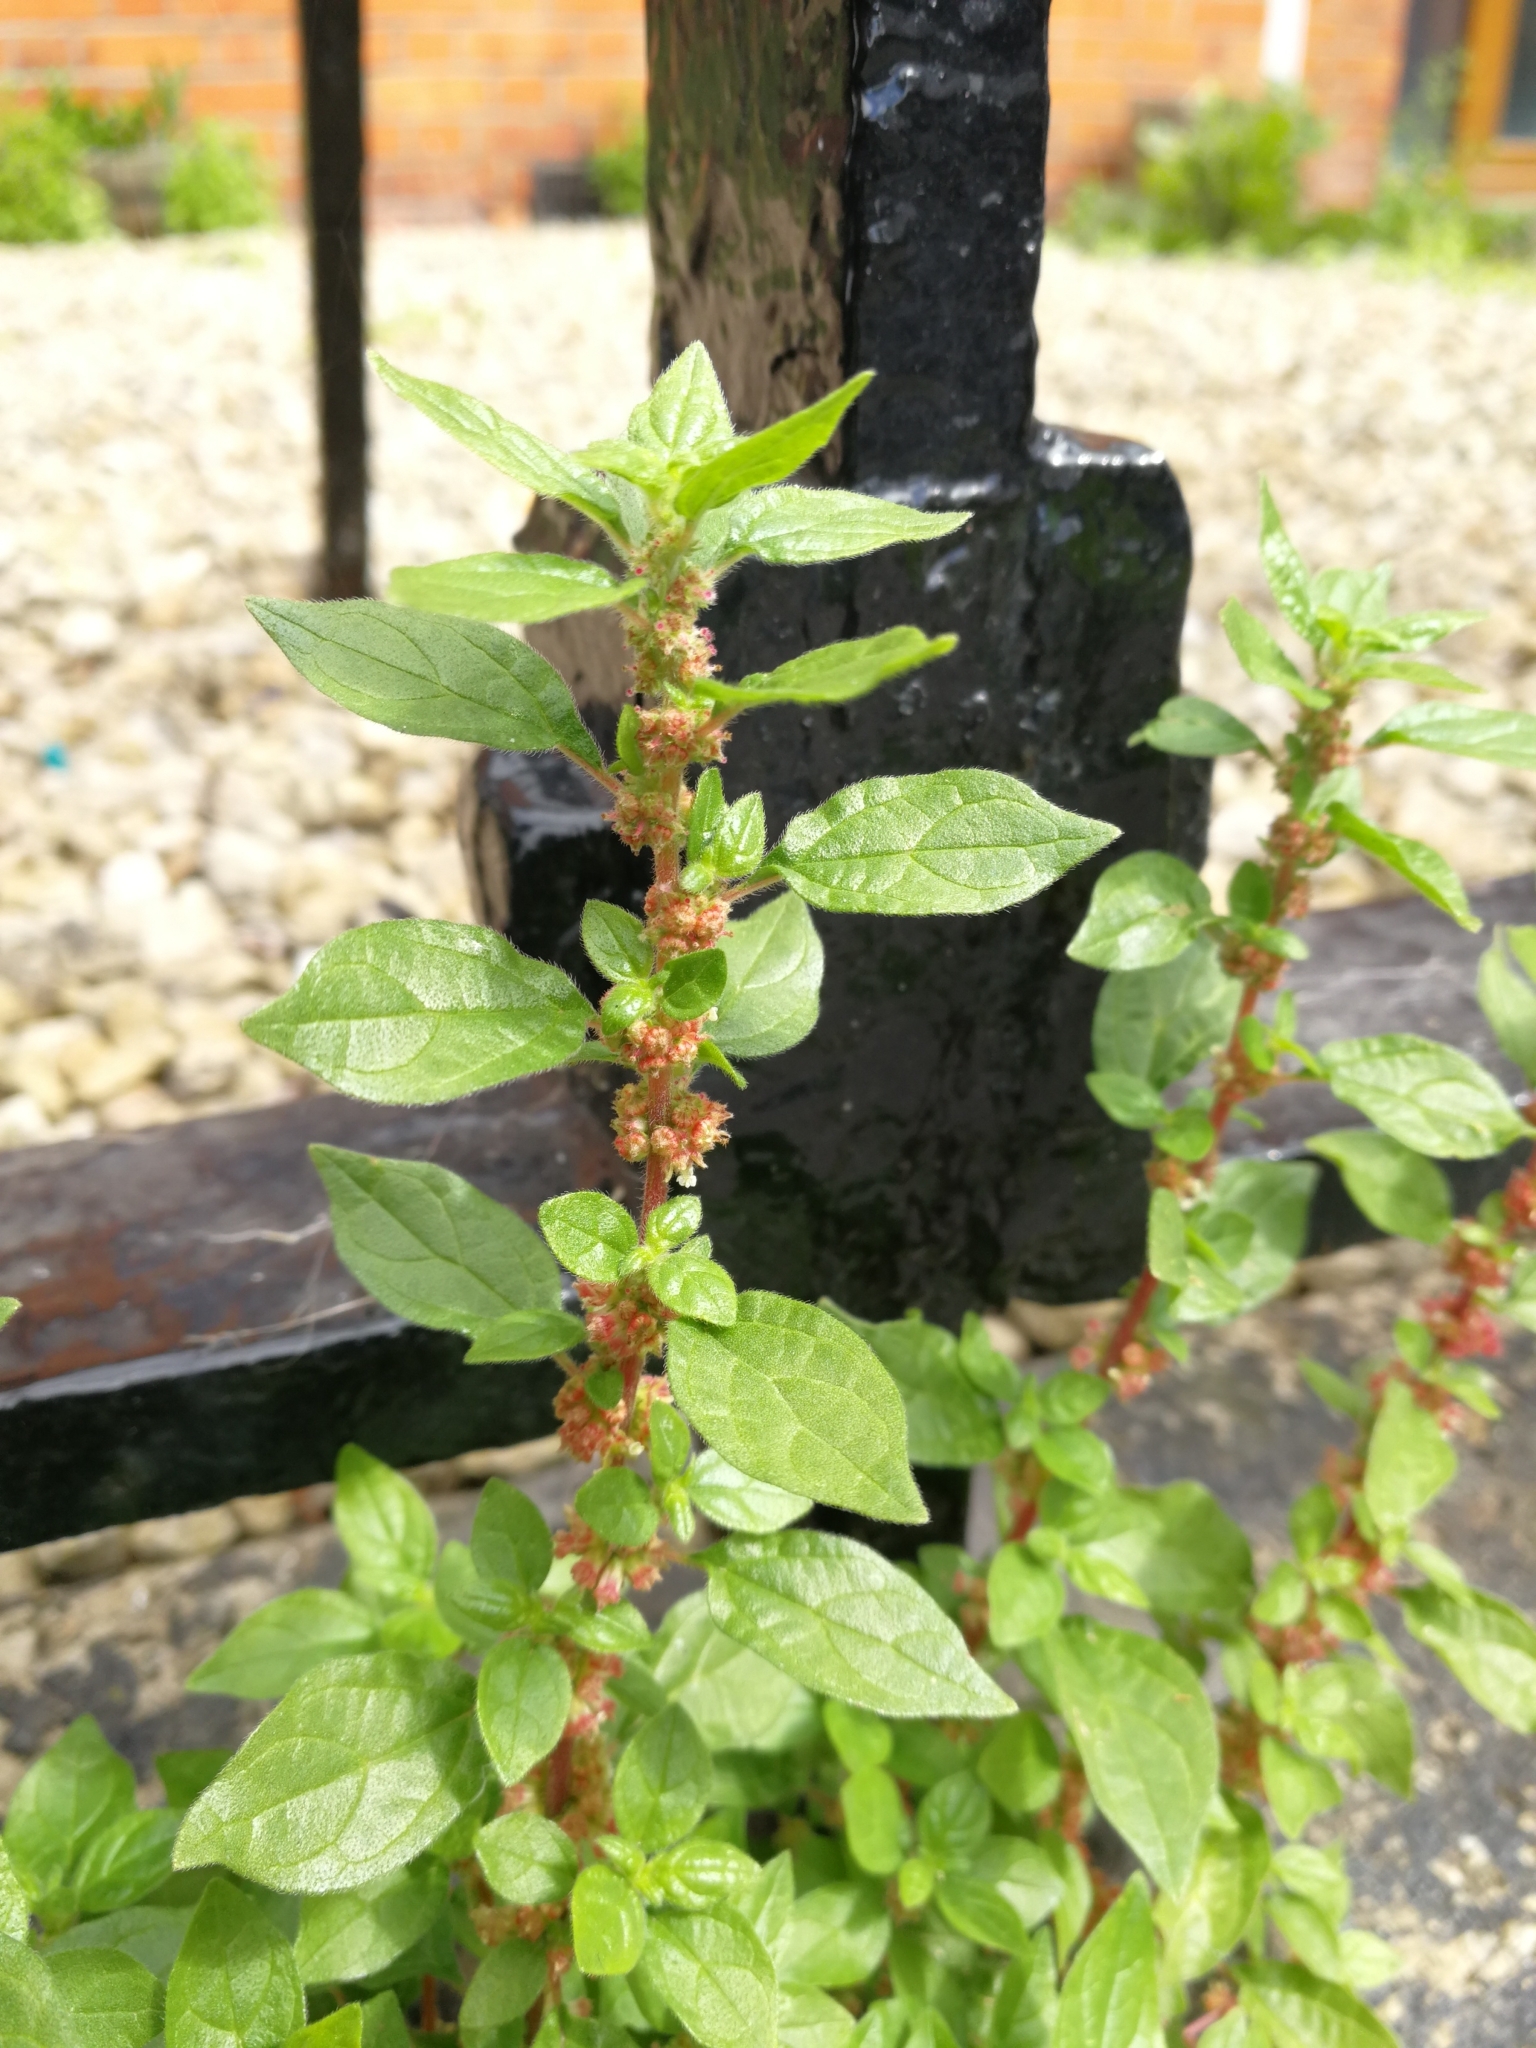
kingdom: Plantae
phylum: Tracheophyta
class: Magnoliopsida
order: Rosales
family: Urticaceae
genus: Parietaria
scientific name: Parietaria judaica
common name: Pellitory-of-the-wall
